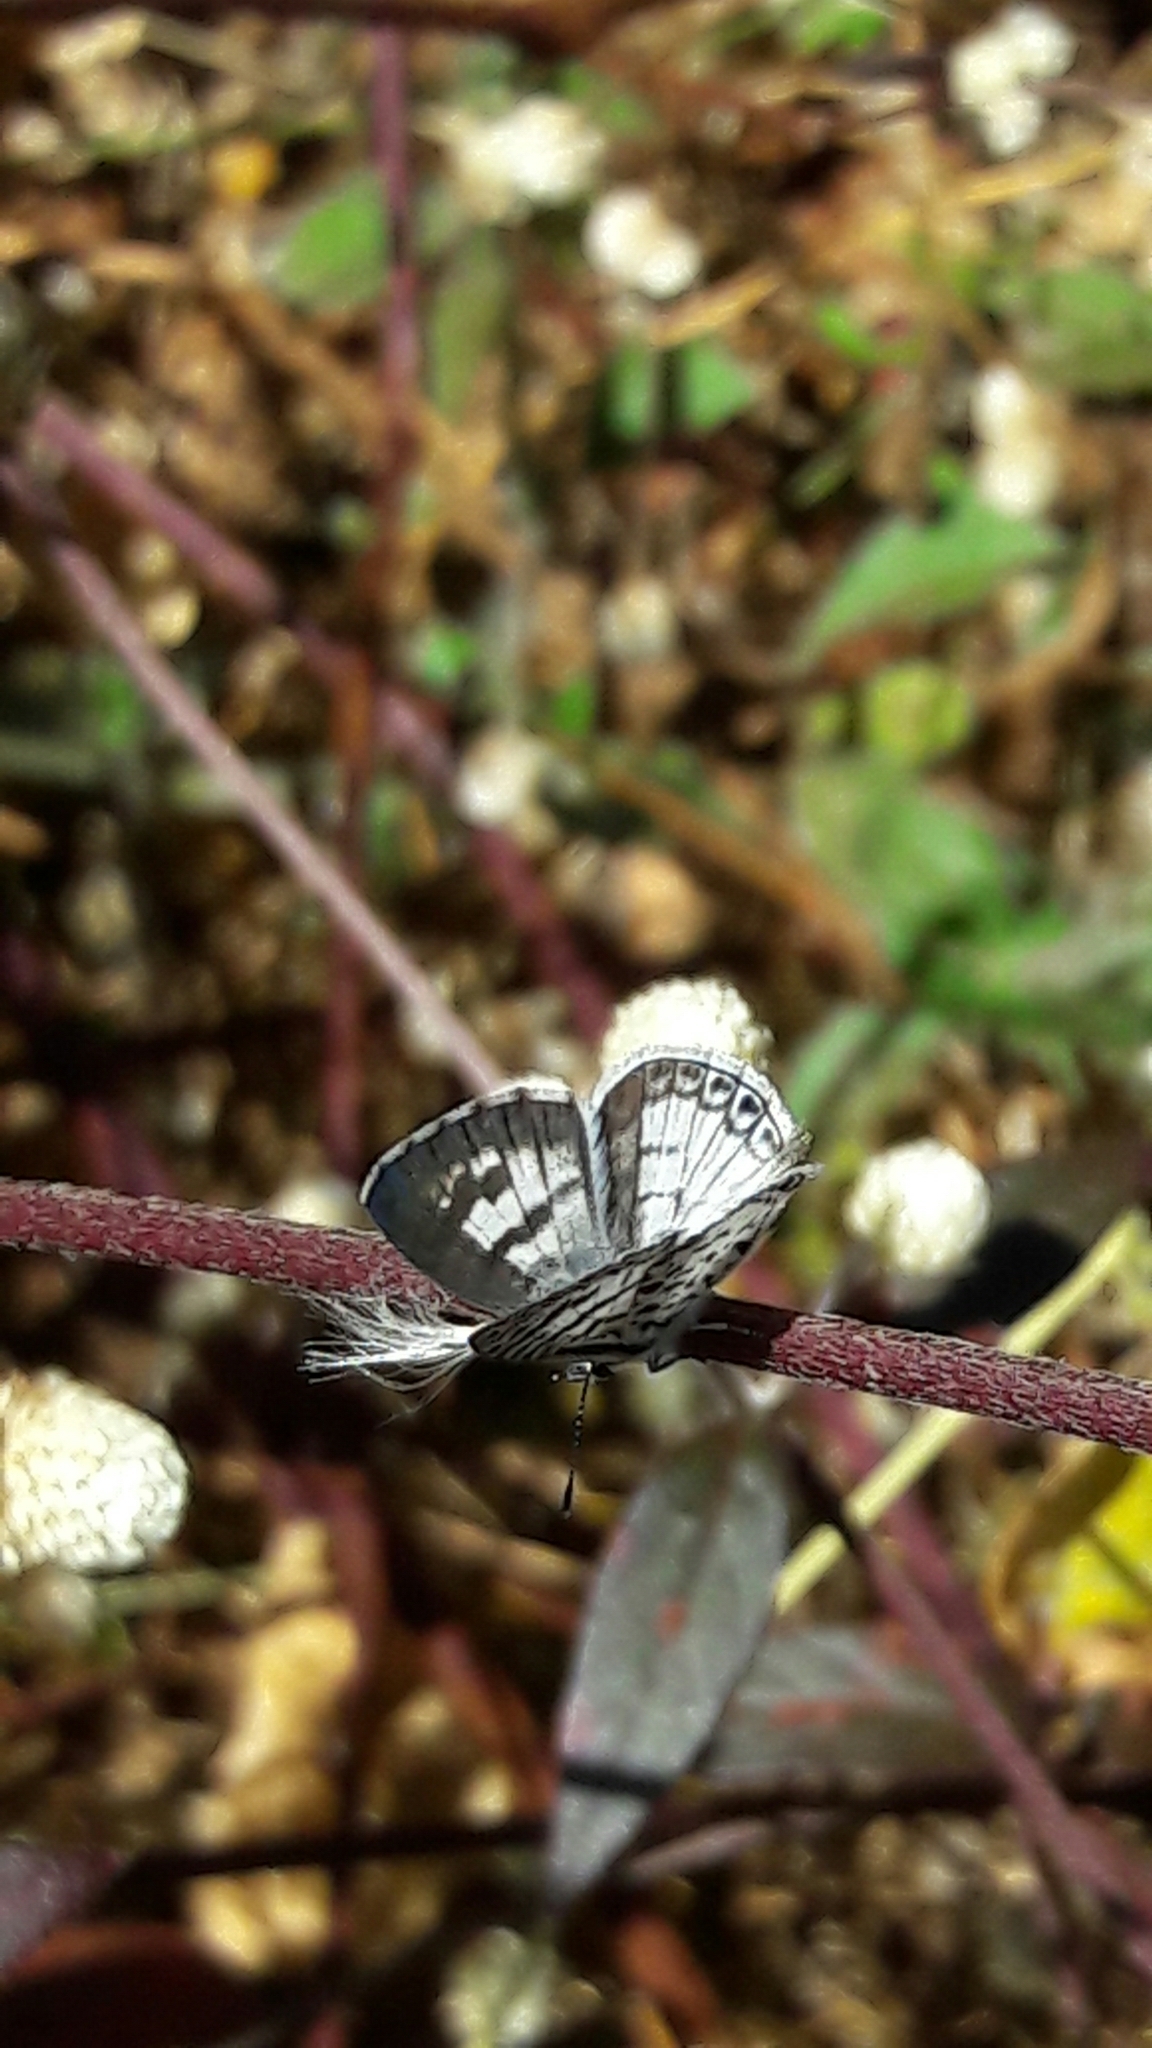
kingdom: Animalia
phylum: Arthropoda
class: Insecta
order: Lepidoptera
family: Lycaenidae
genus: Leptotes
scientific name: Leptotes cassius
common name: Cassius blue
